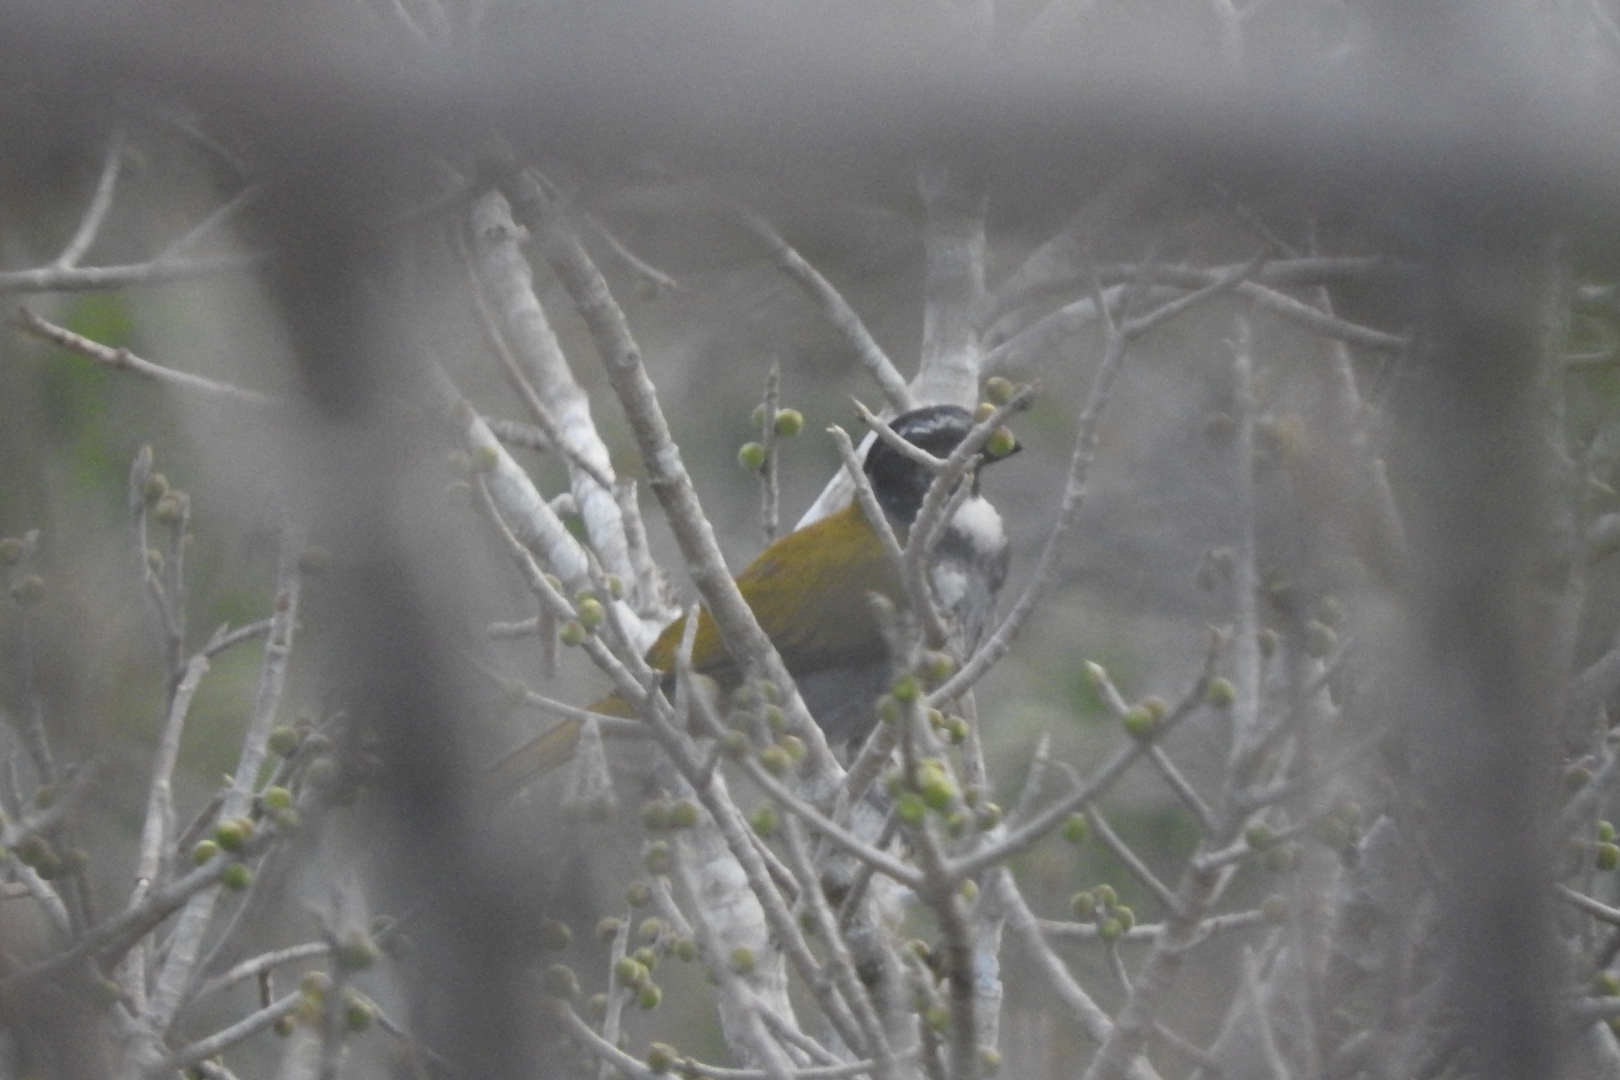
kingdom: Animalia
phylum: Chordata
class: Aves
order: Passeriformes
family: Thraupidae
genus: Saltator
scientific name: Saltator atriceps
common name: Black-headed saltator
